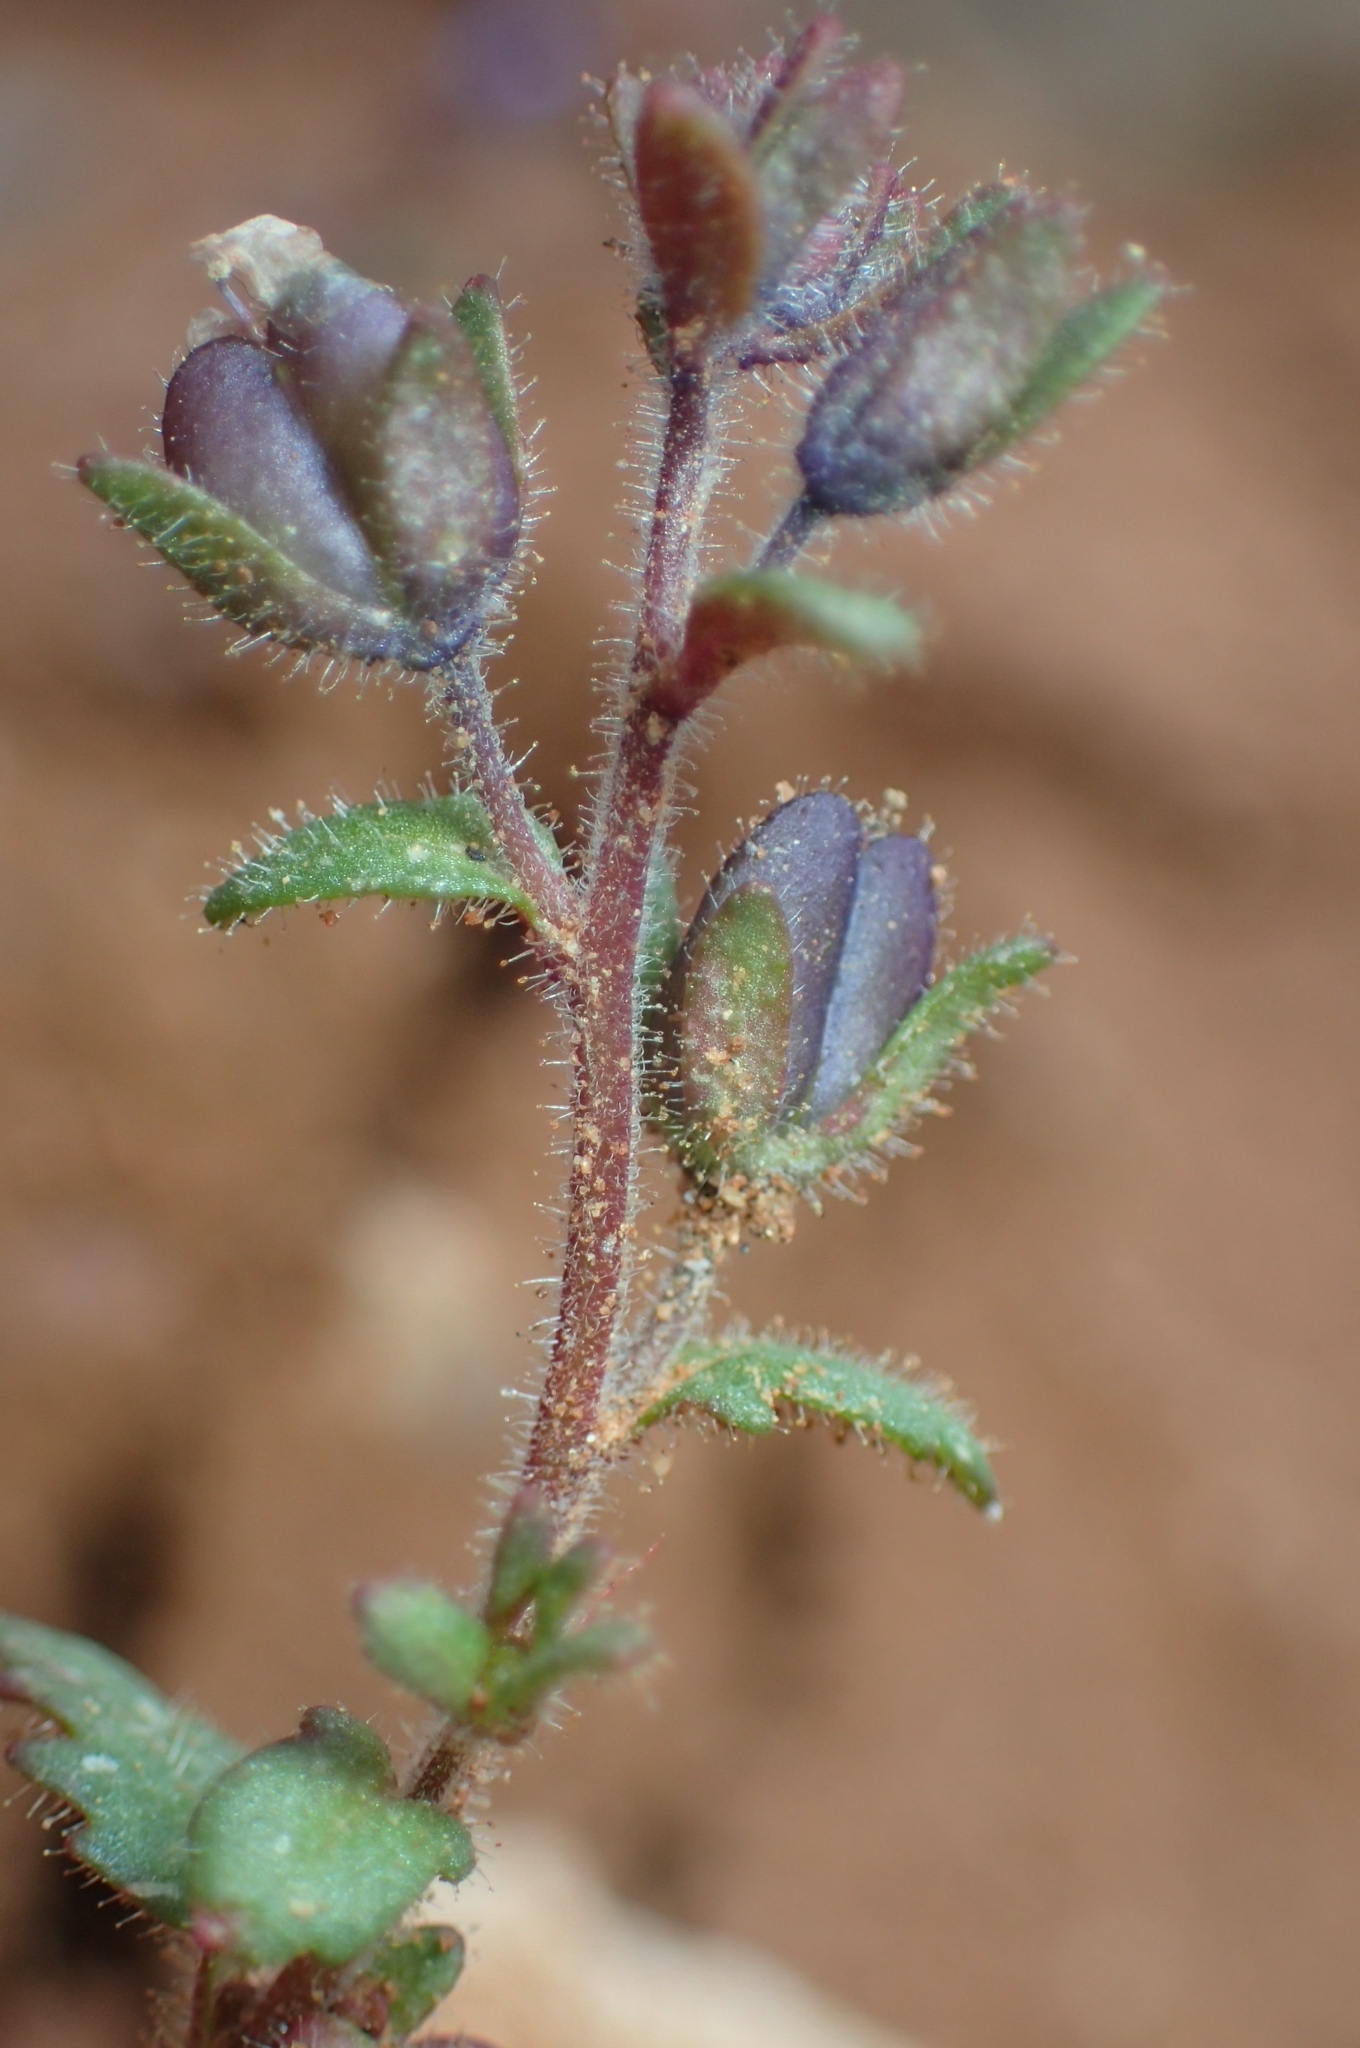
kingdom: Plantae
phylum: Tracheophyta
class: Magnoliopsida
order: Lamiales
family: Plantaginaceae
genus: Veronica
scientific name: Veronica praecox
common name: Breckland speedwell
